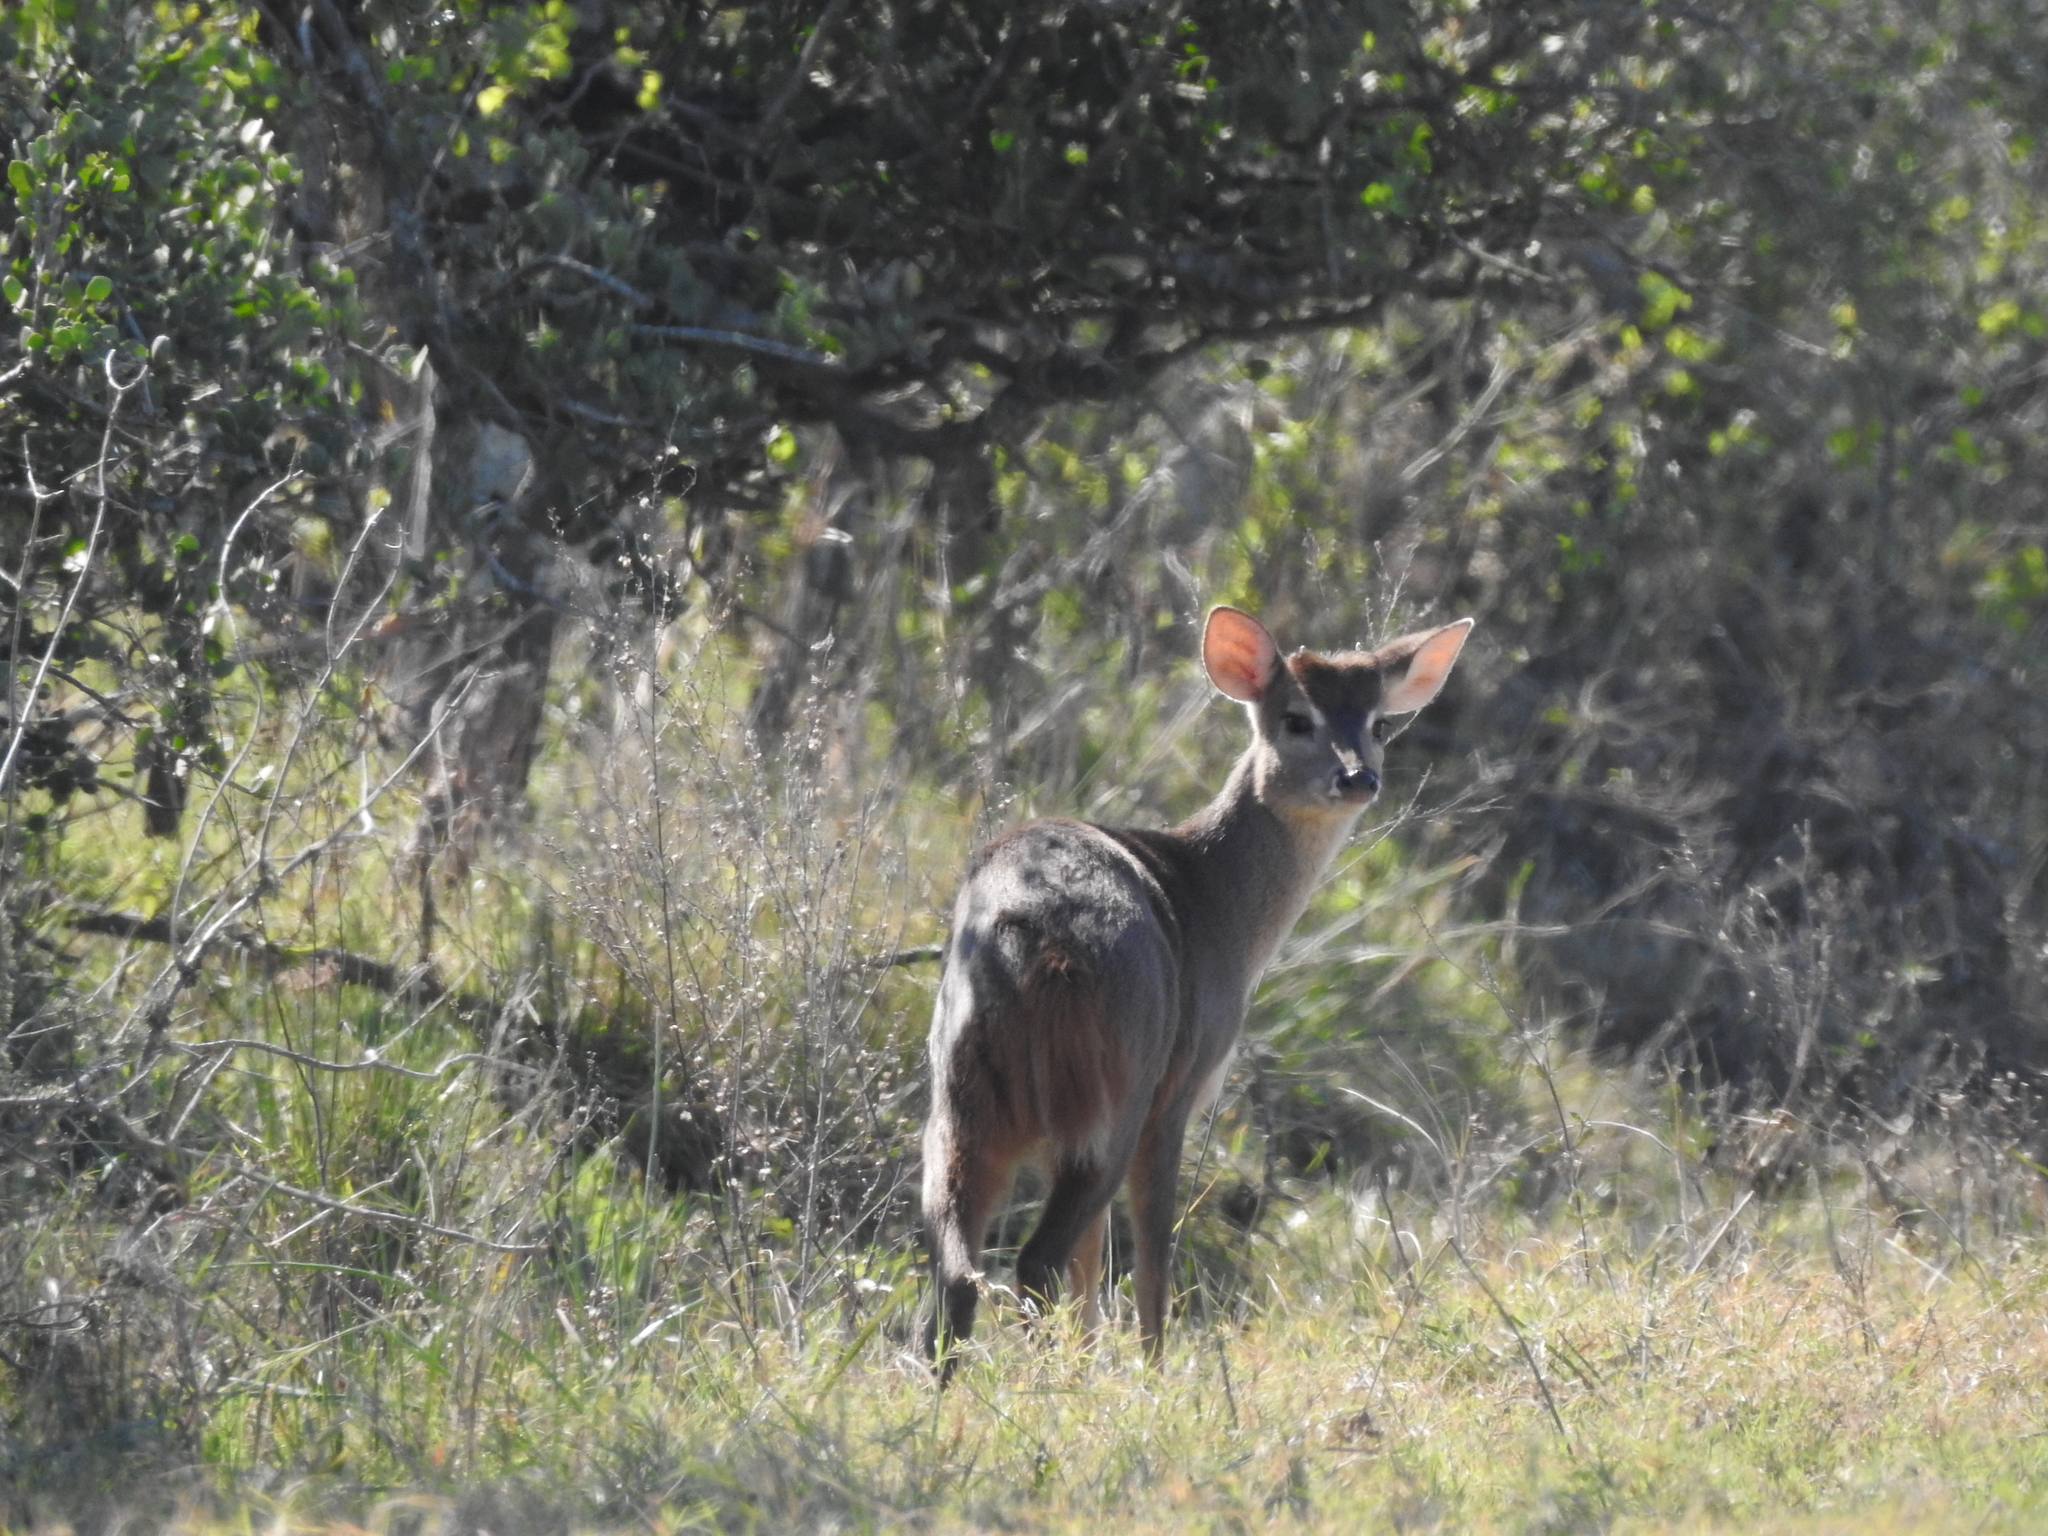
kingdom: Animalia
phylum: Chordata
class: Mammalia
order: Artiodactyla
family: Cervidae
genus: Mazama
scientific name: Mazama gouazoubira
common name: Gray brocket
